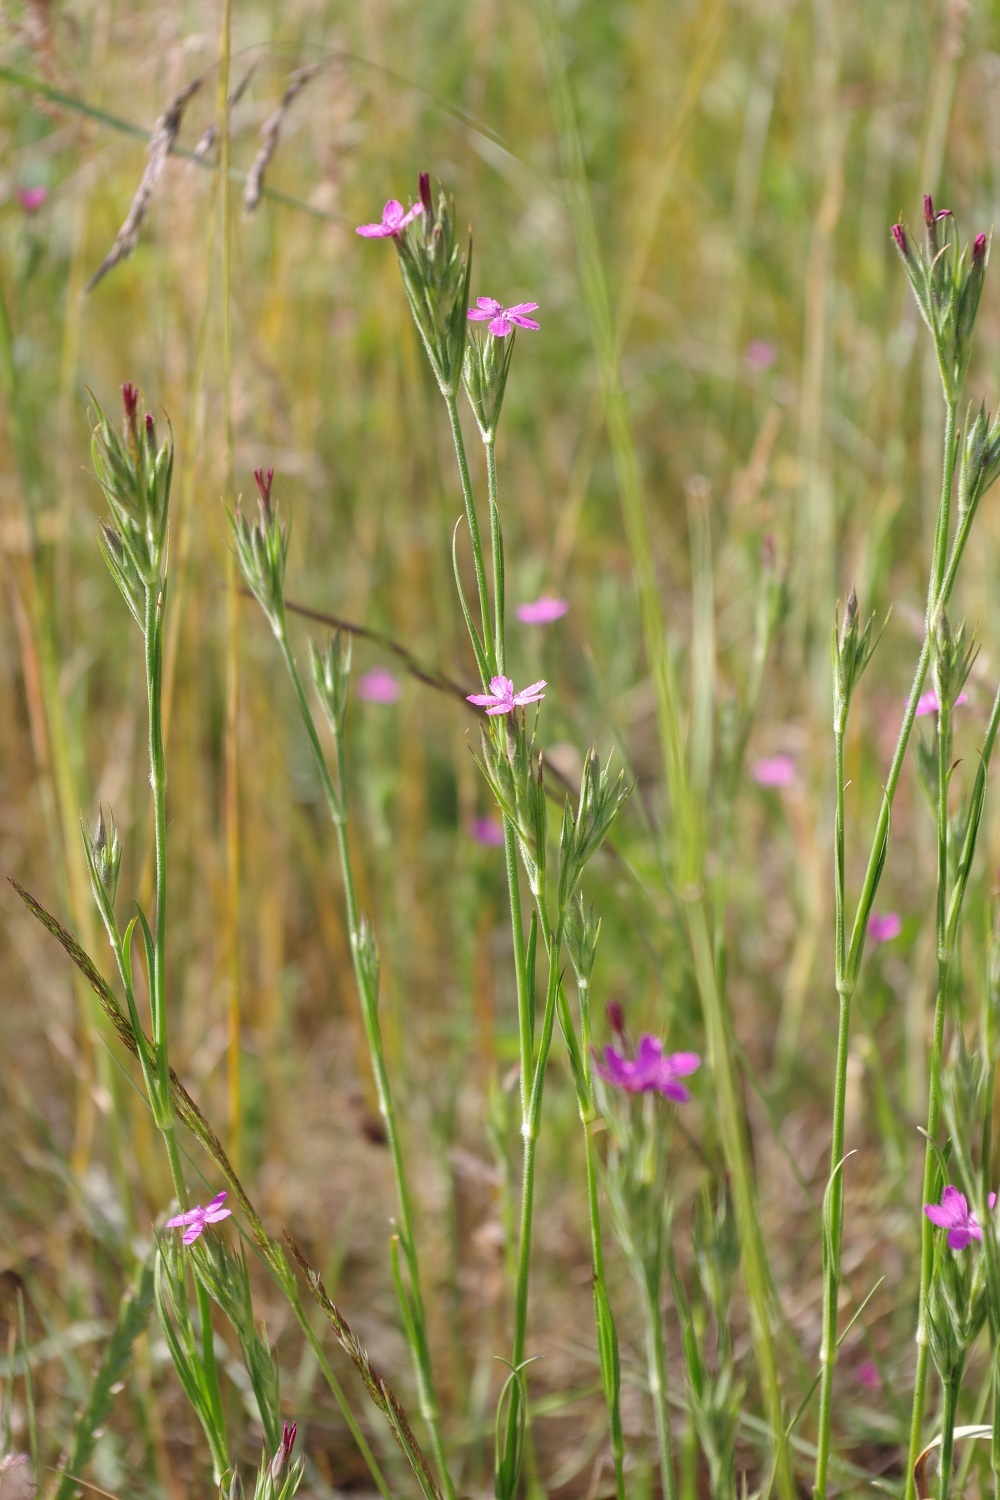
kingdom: Plantae
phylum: Tracheophyta
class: Magnoliopsida
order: Caryophyllales
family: Caryophyllaceae
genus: Dianthus
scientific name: Dianthus armeria
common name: Deptford pink
